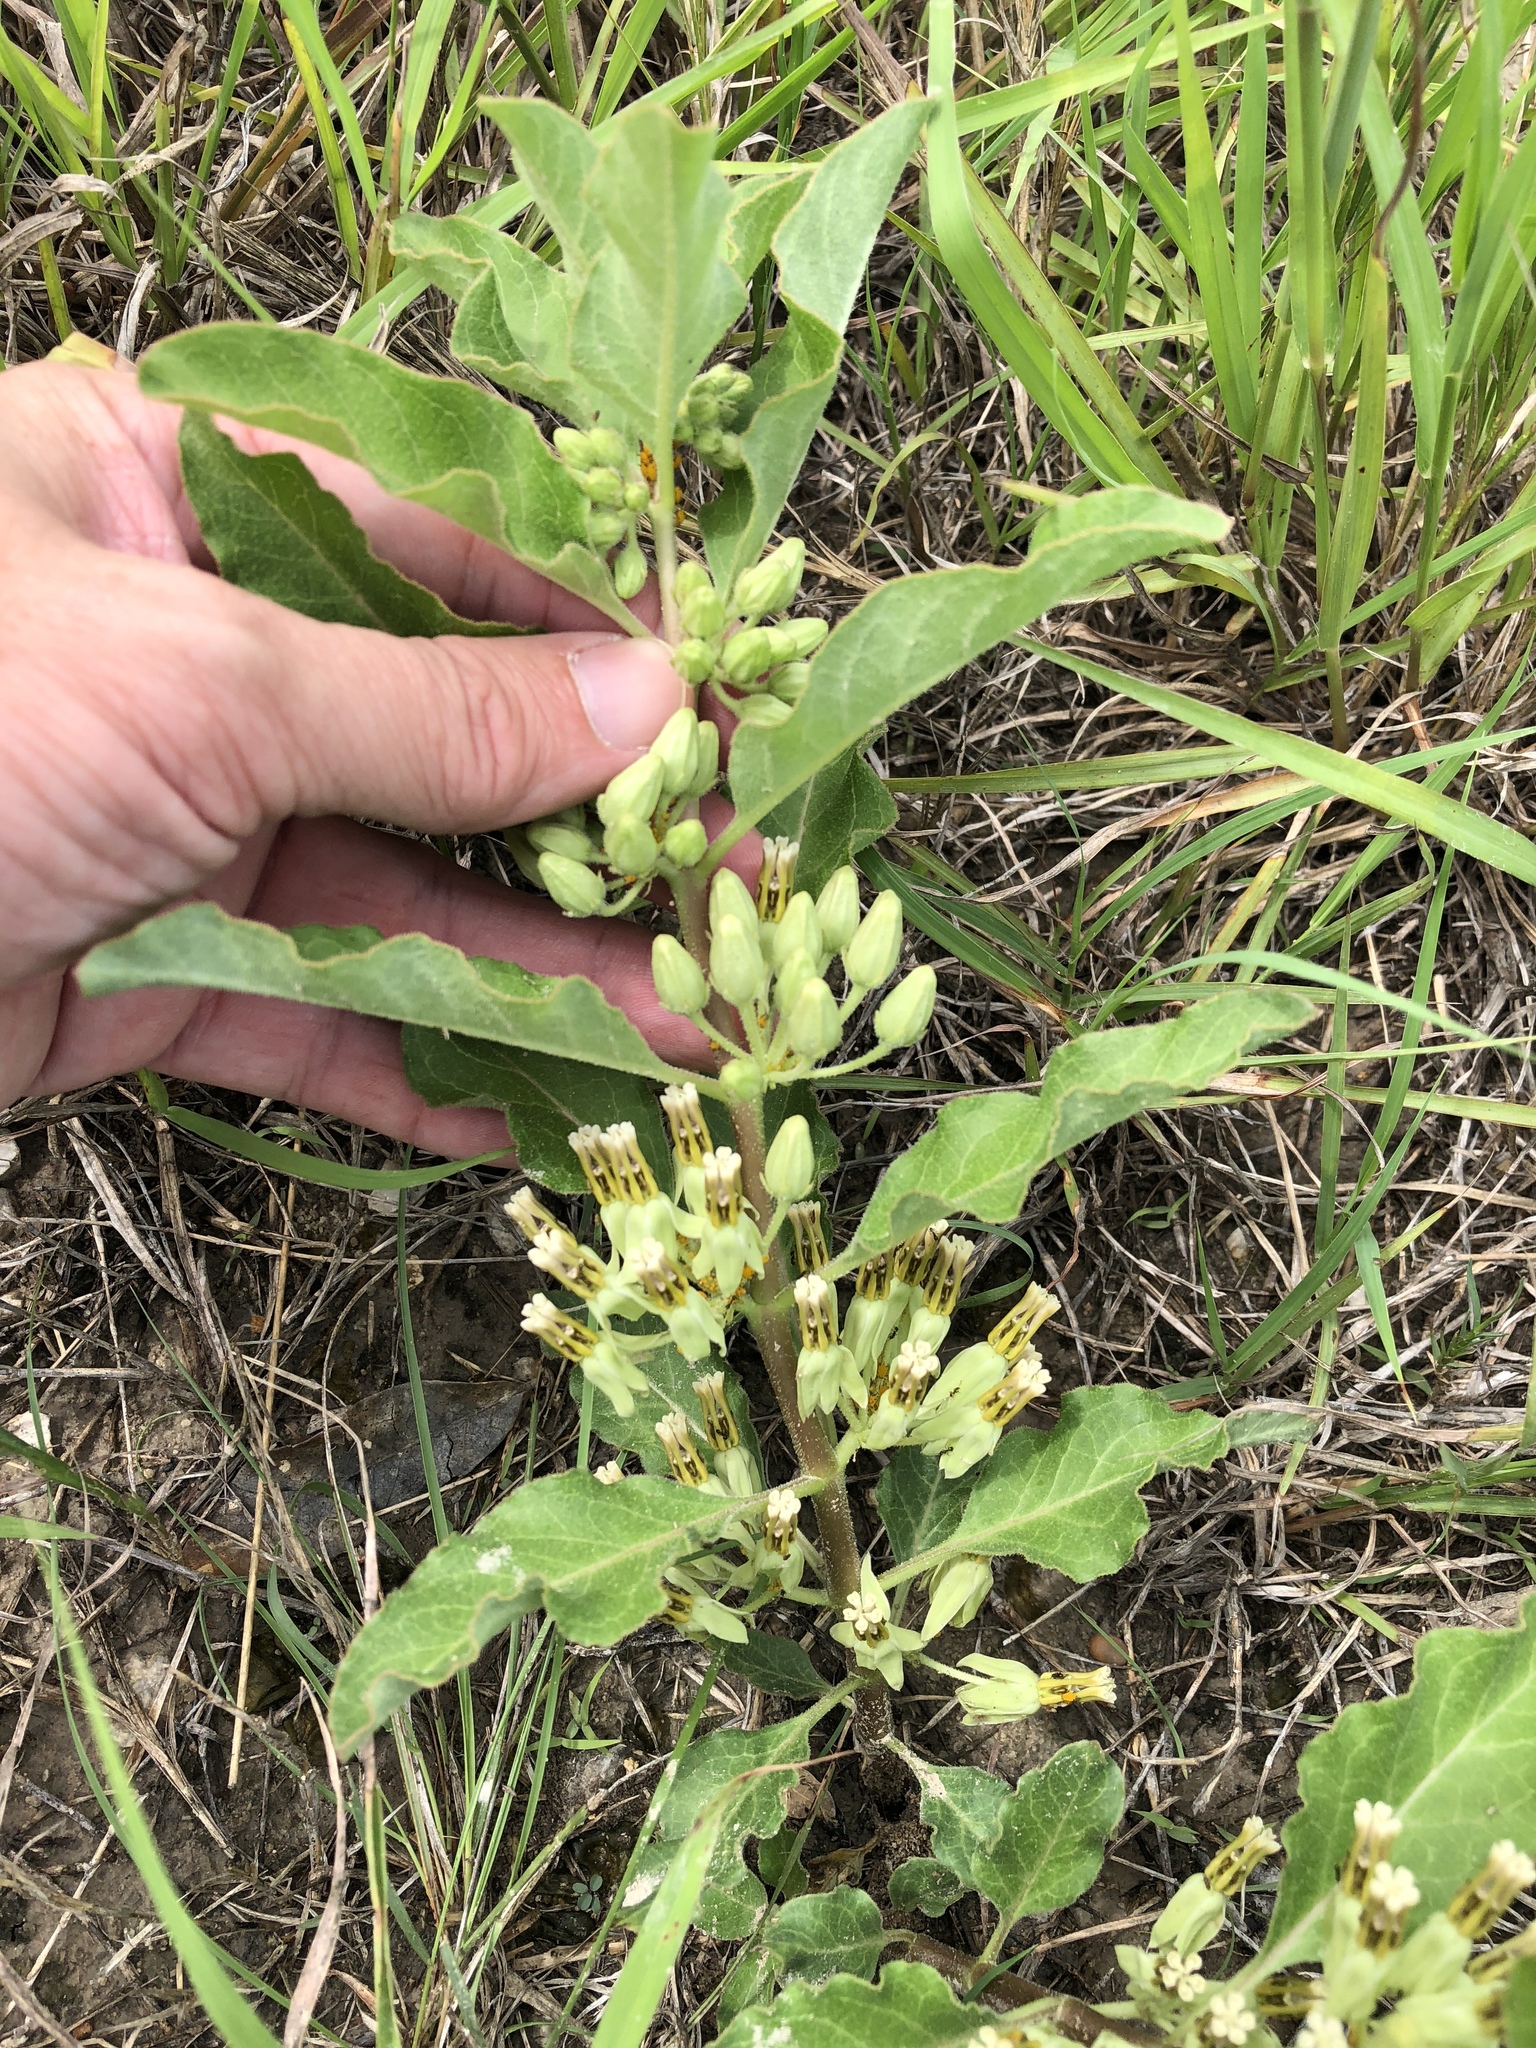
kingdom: Plantae
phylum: Tracheophyta
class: Magnoliopsida
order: Gentianales
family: Apocynaceae
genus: Asclepias
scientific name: Asclepias oenotheroides
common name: Zizotes milkweed
